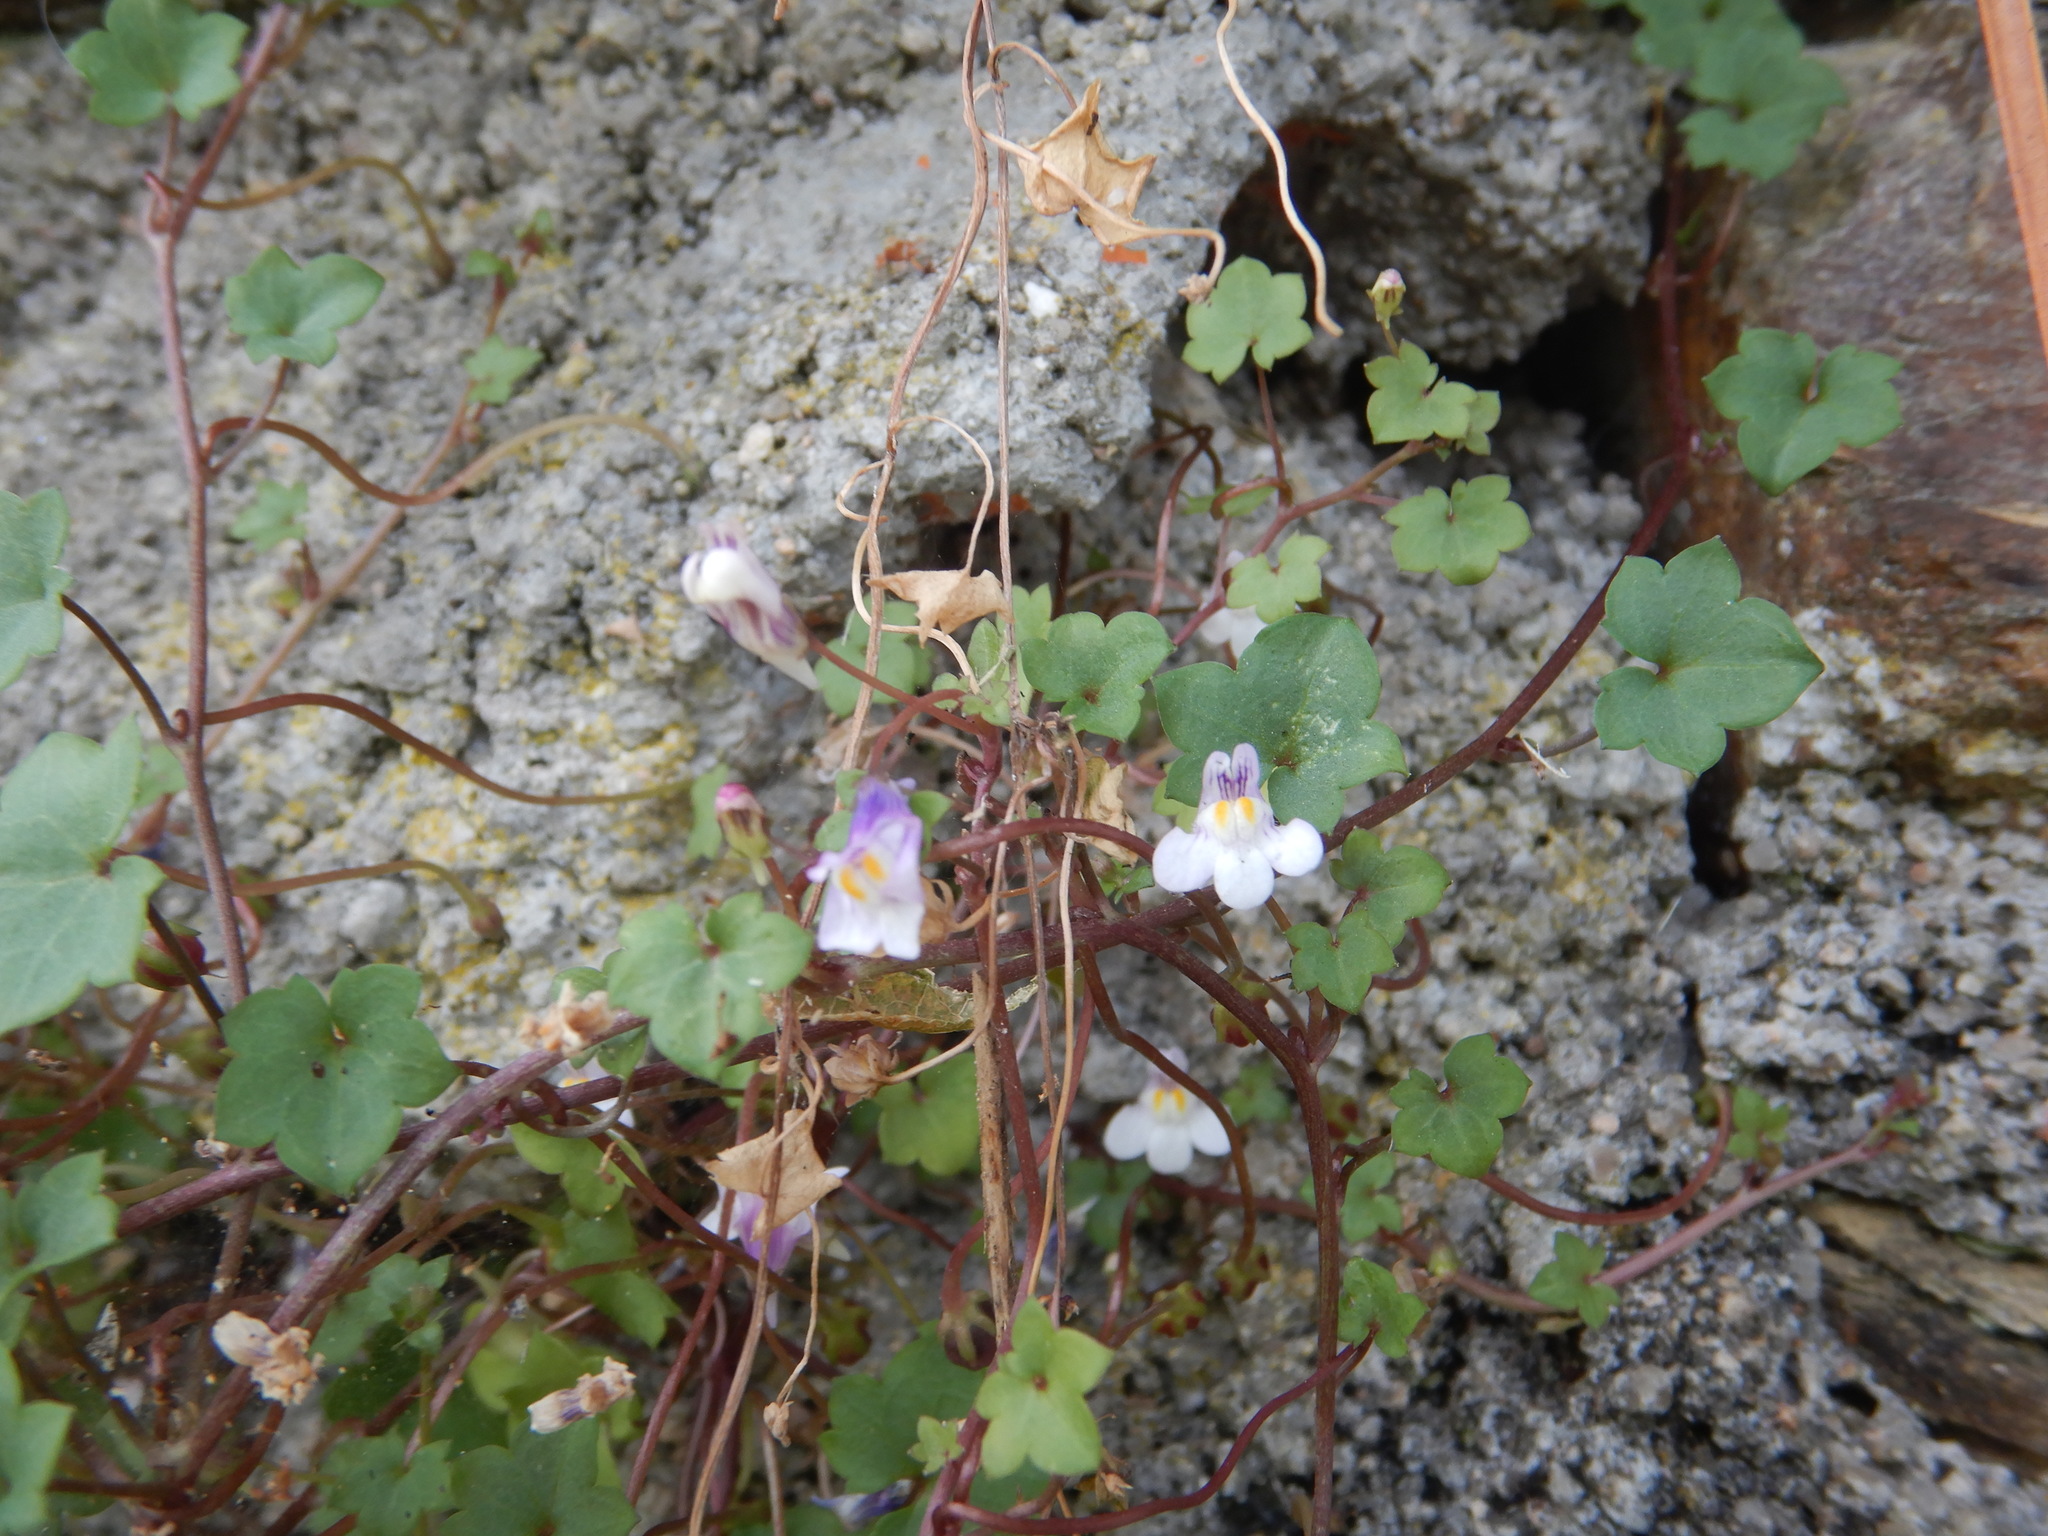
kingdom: Plantae
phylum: Tracheophyta
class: Magnoliopsida
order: Lamiales
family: Plantaginaceae
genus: Cymbalaria
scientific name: Cymbalaria muralis
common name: Ivy-leaved toadflax
